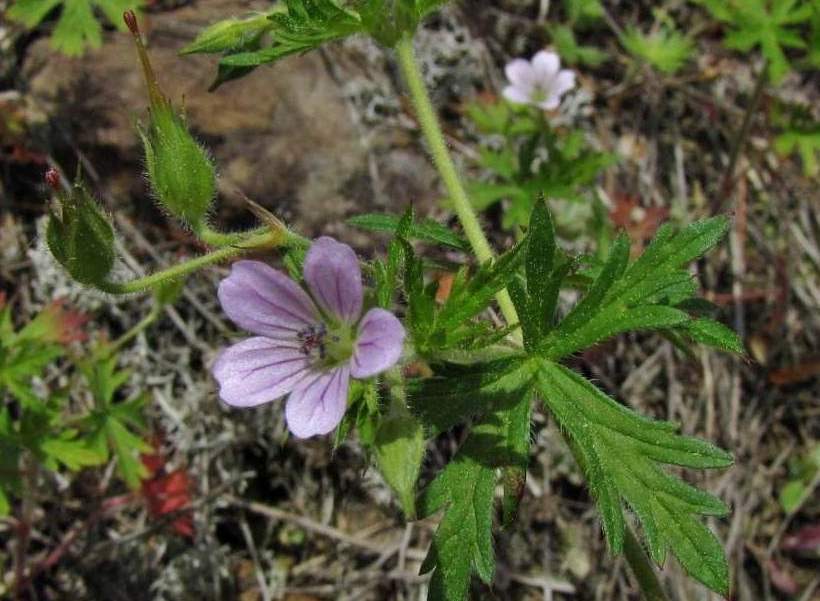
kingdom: Plantae
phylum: Tracheophyta
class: Magnoliopsida
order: Geraniales
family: Geraniaceae
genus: Geranium
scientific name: Geranium bicknellii
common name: Bicknell's cranesbill
